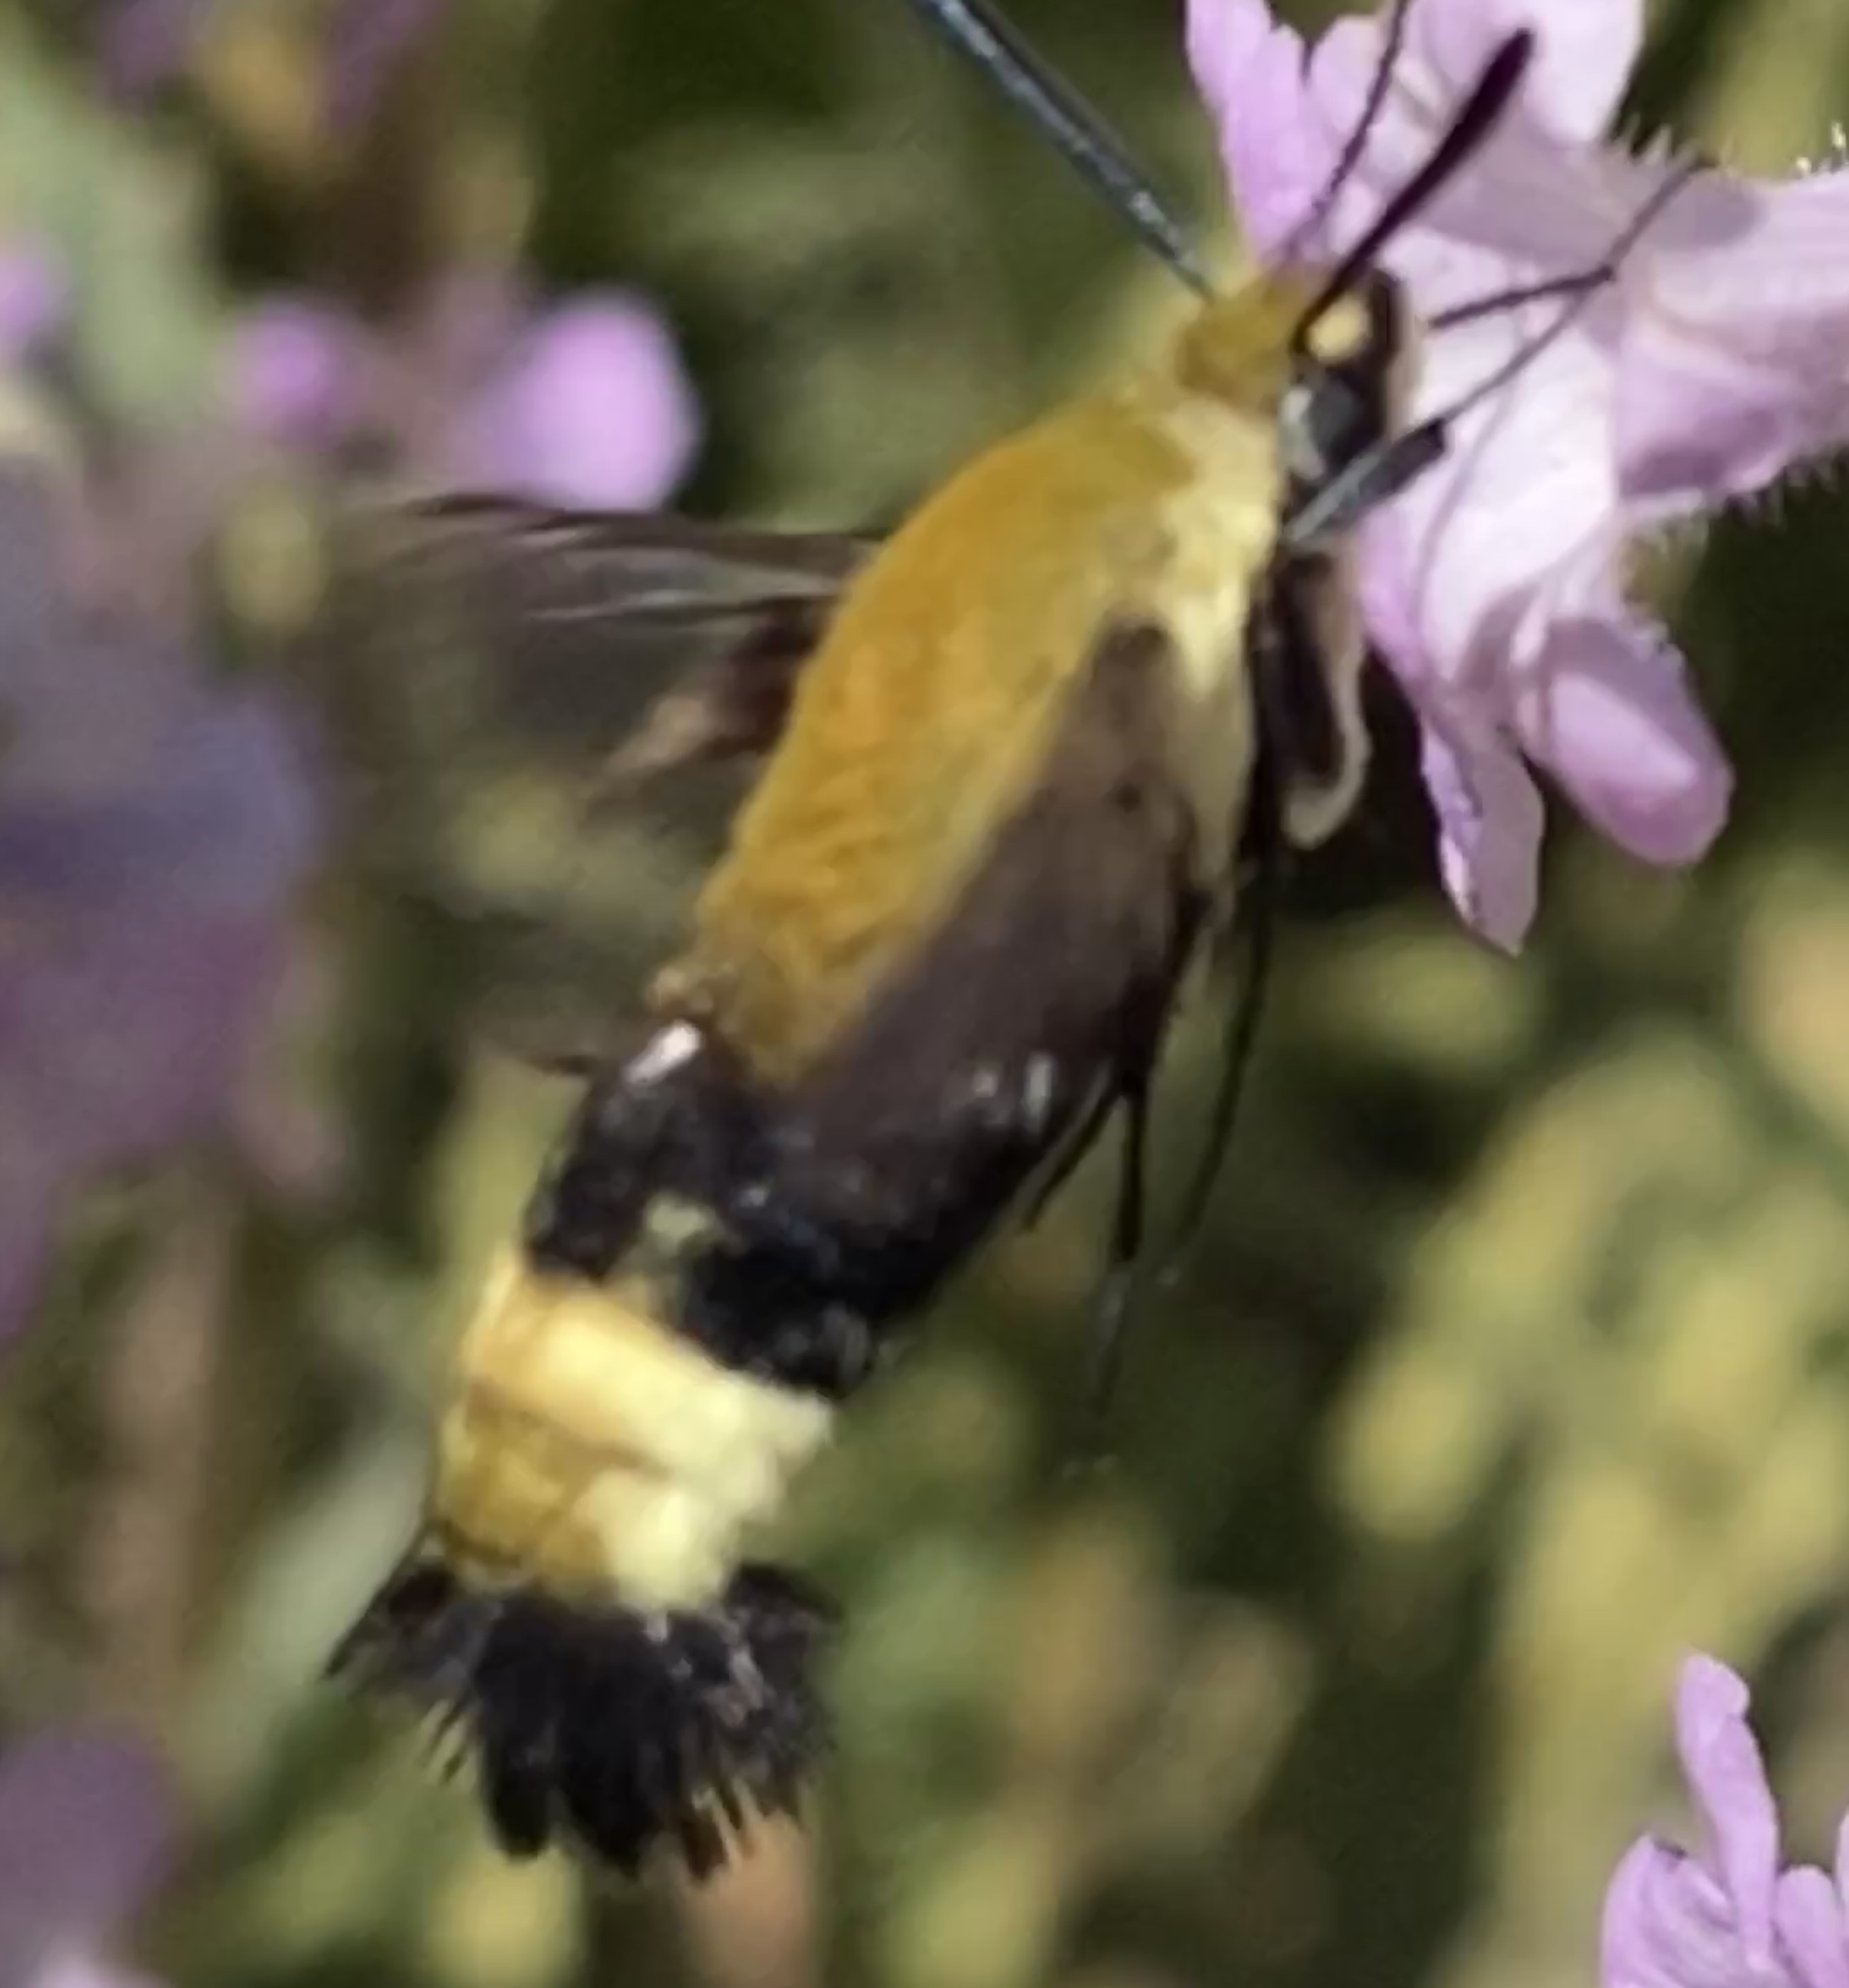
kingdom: Animalia
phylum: Arthropoda
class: Insecta
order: Lepidoptera
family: Sphingidae
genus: Hemaris
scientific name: Hemaris thetis
